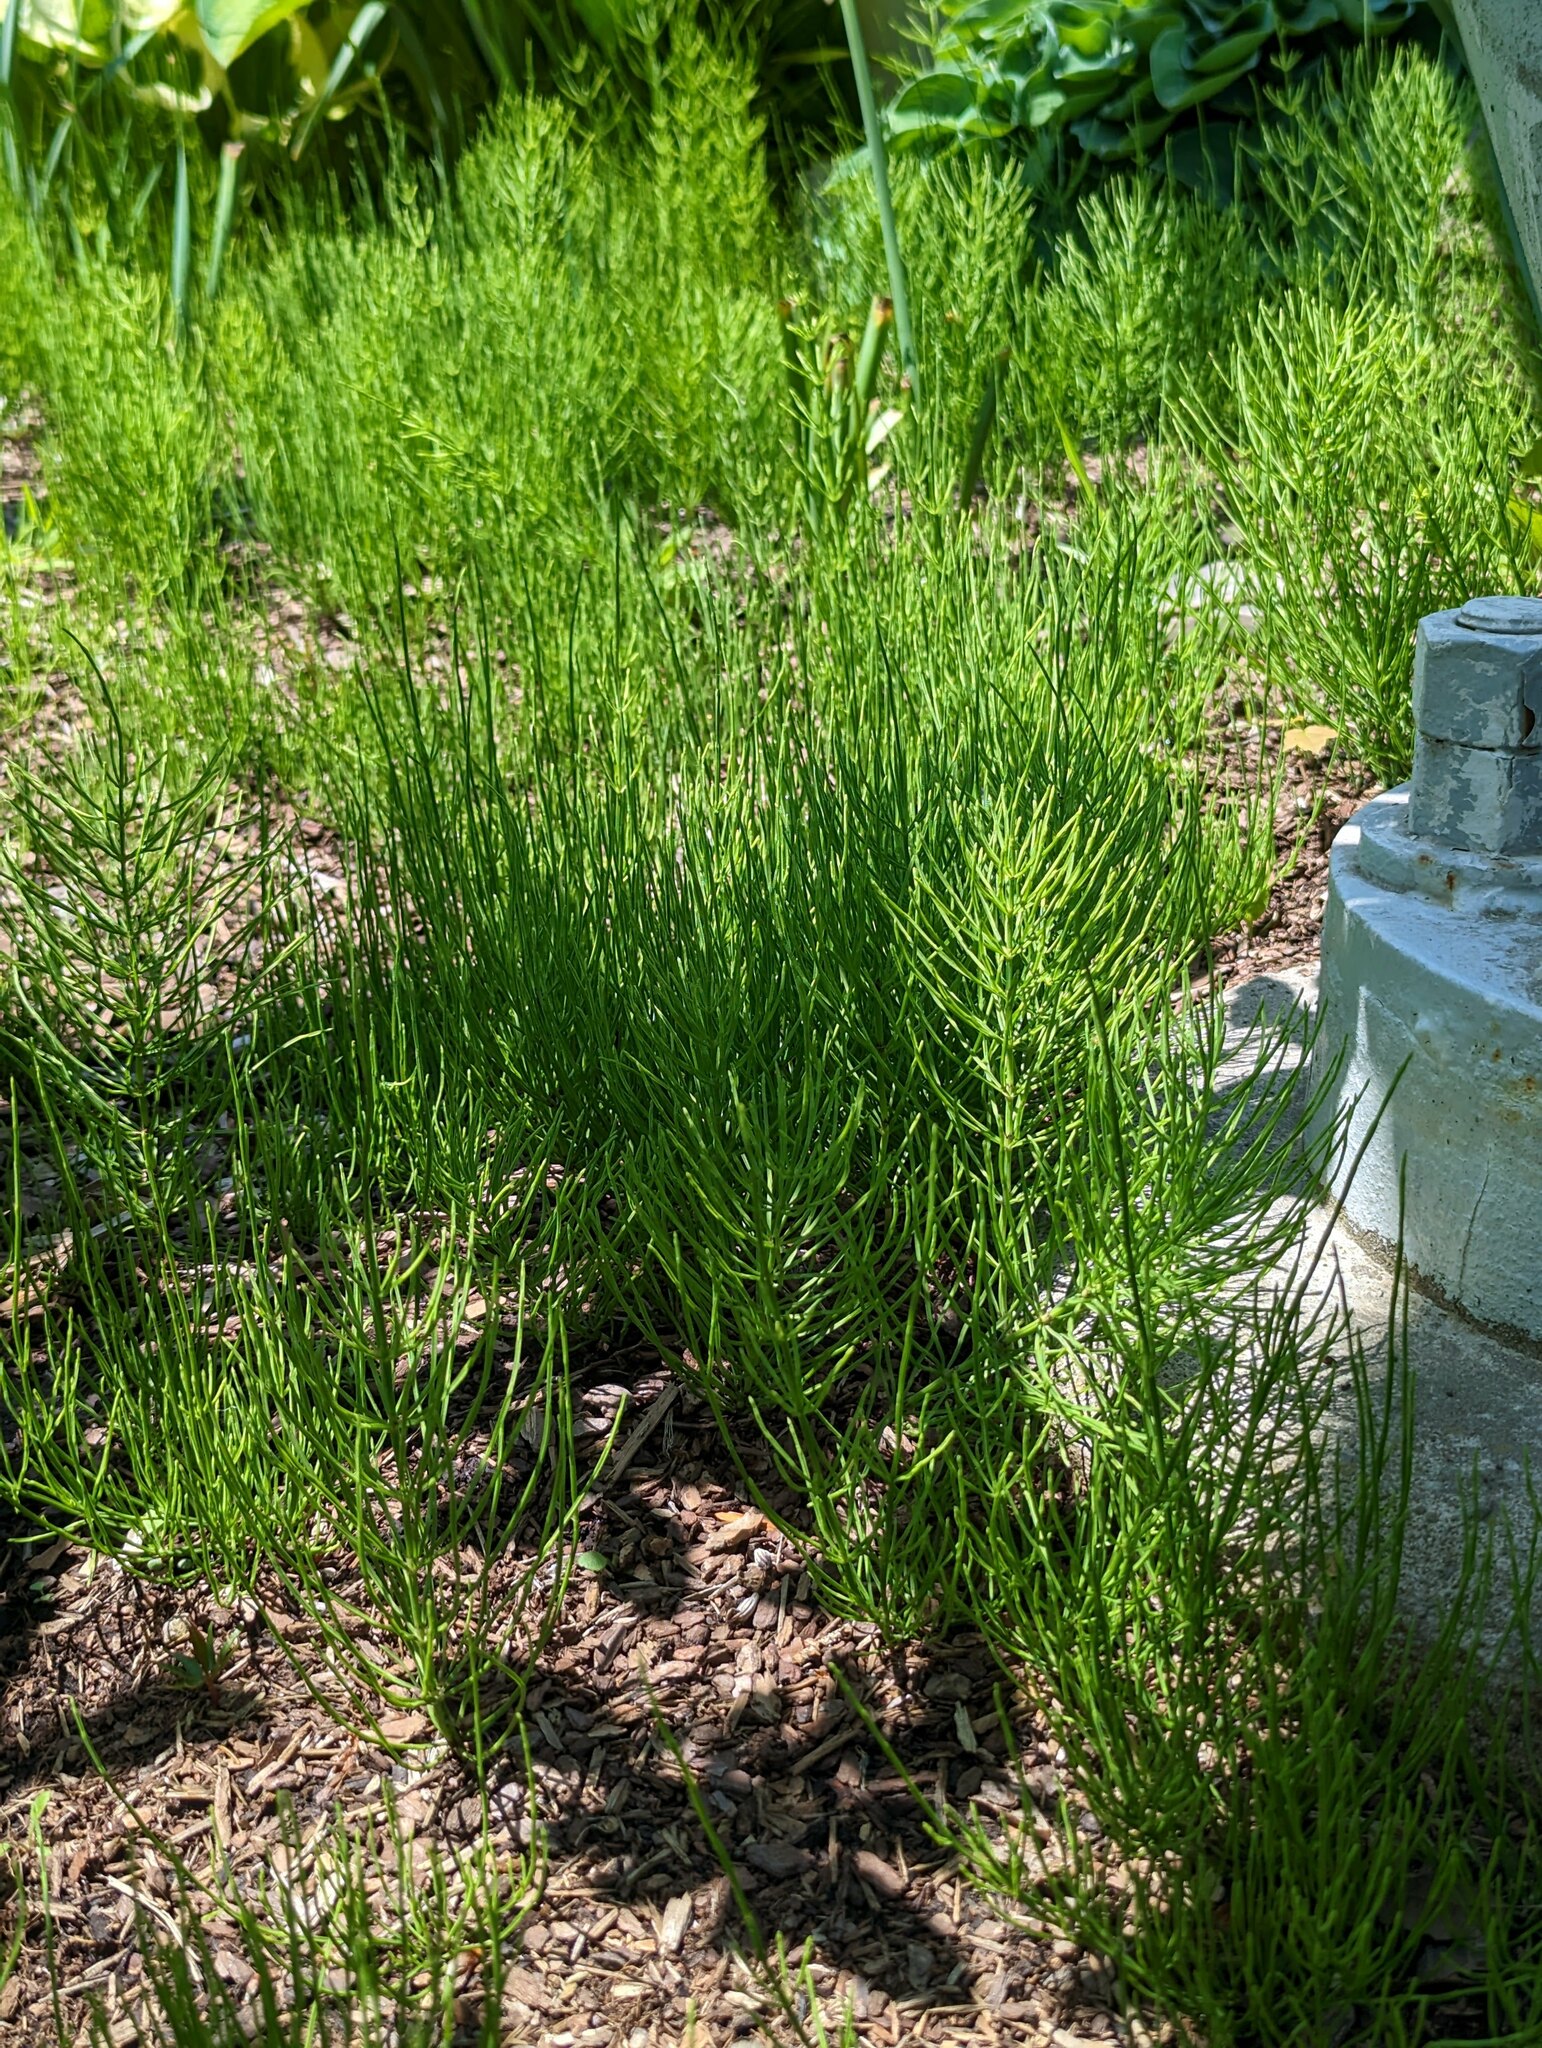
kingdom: Plantae
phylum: Tracheophyta
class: Polypodiopsida
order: Equisetales
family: Equisetaceae
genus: Equisetum
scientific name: Equisetum arvense
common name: Field horsetail
